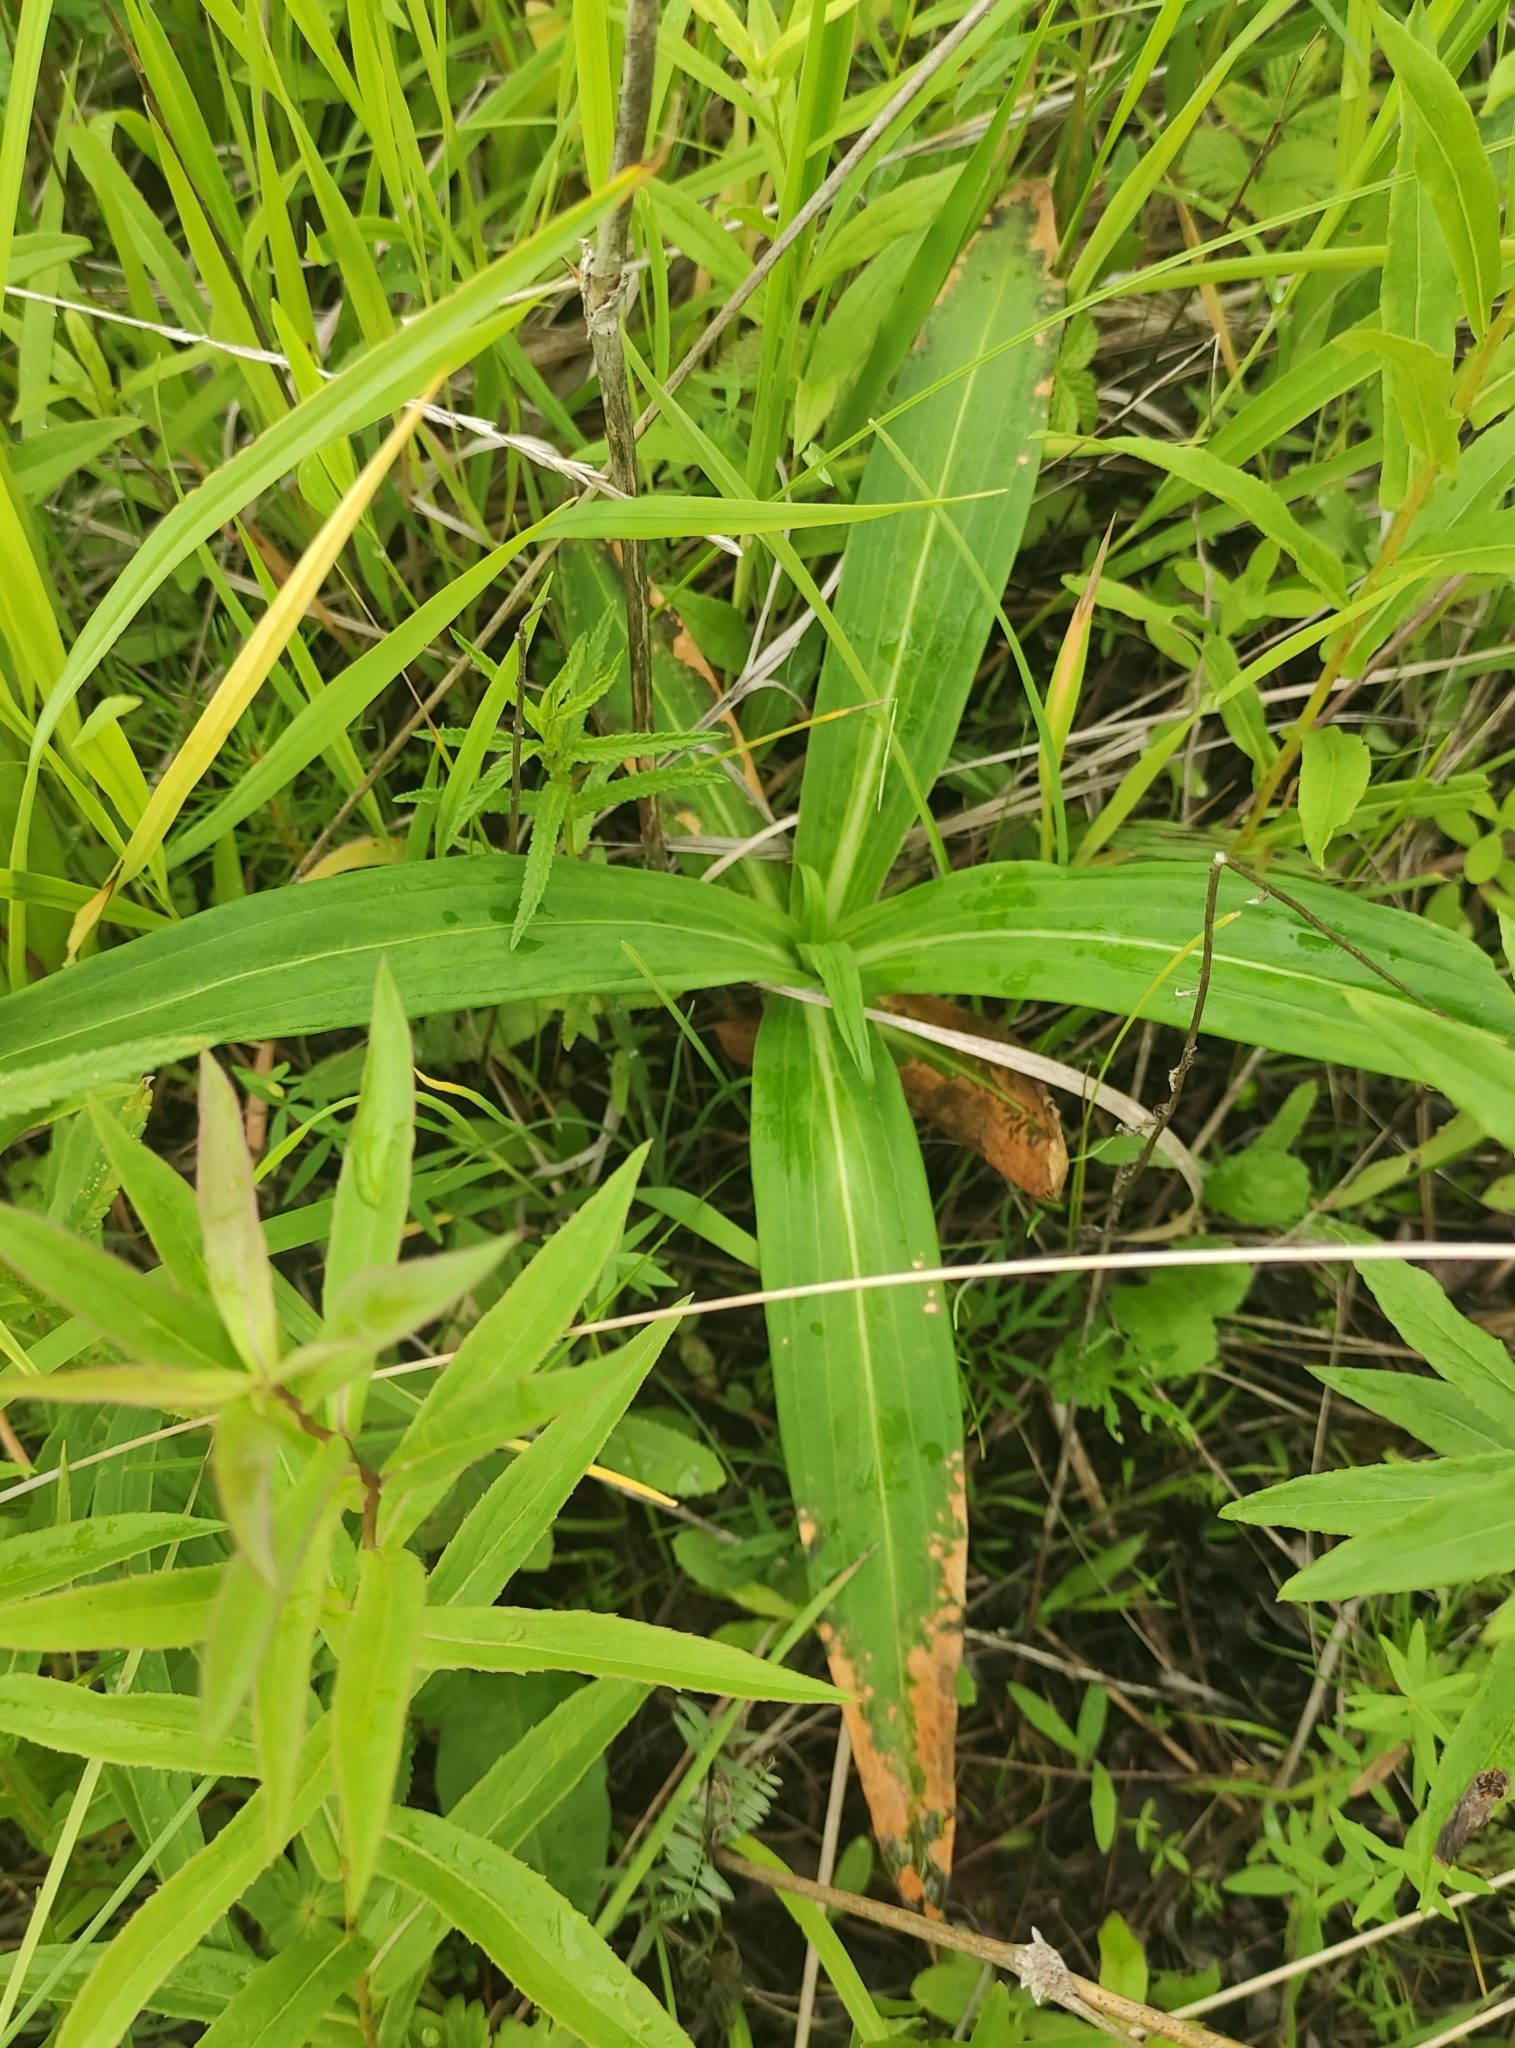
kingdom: Plantae
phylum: Tracheophyta
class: Magnoliopsida
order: Gentianales
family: Gentianaceae
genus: Gentiana
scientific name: Gentiana macrophylla
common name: Large-leaf gentian
